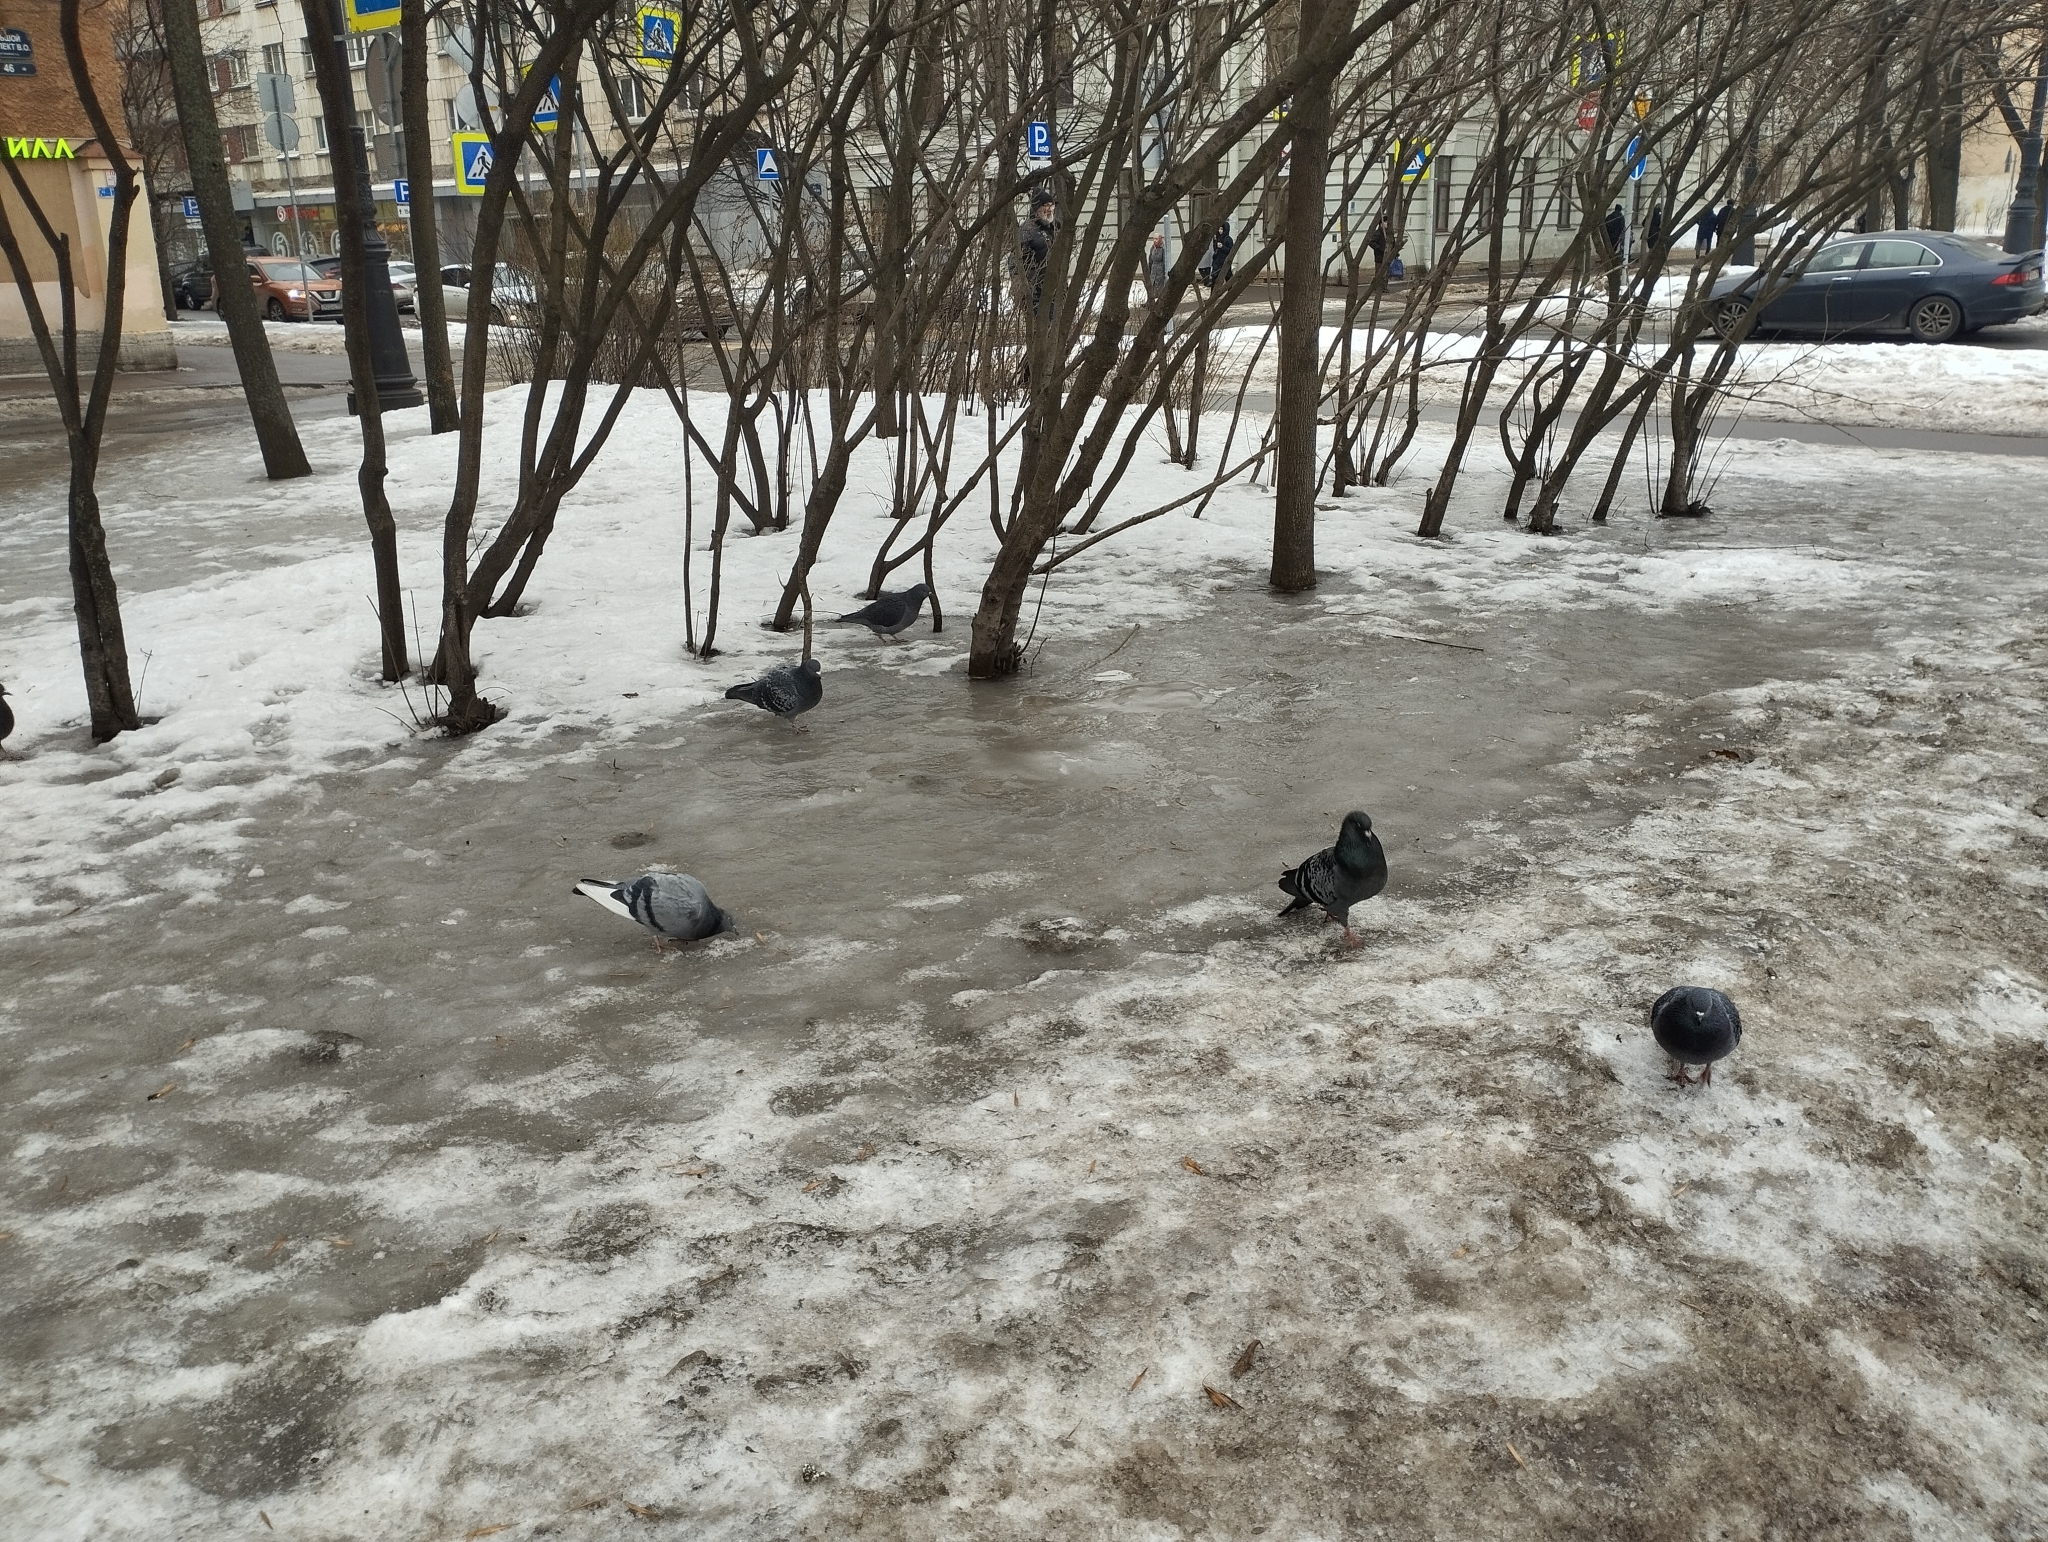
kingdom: Animalia
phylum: Chordata
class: Aves
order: Columbiformes
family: Columbidae
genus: Columba
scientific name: Columba livia
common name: Rock pigeon
